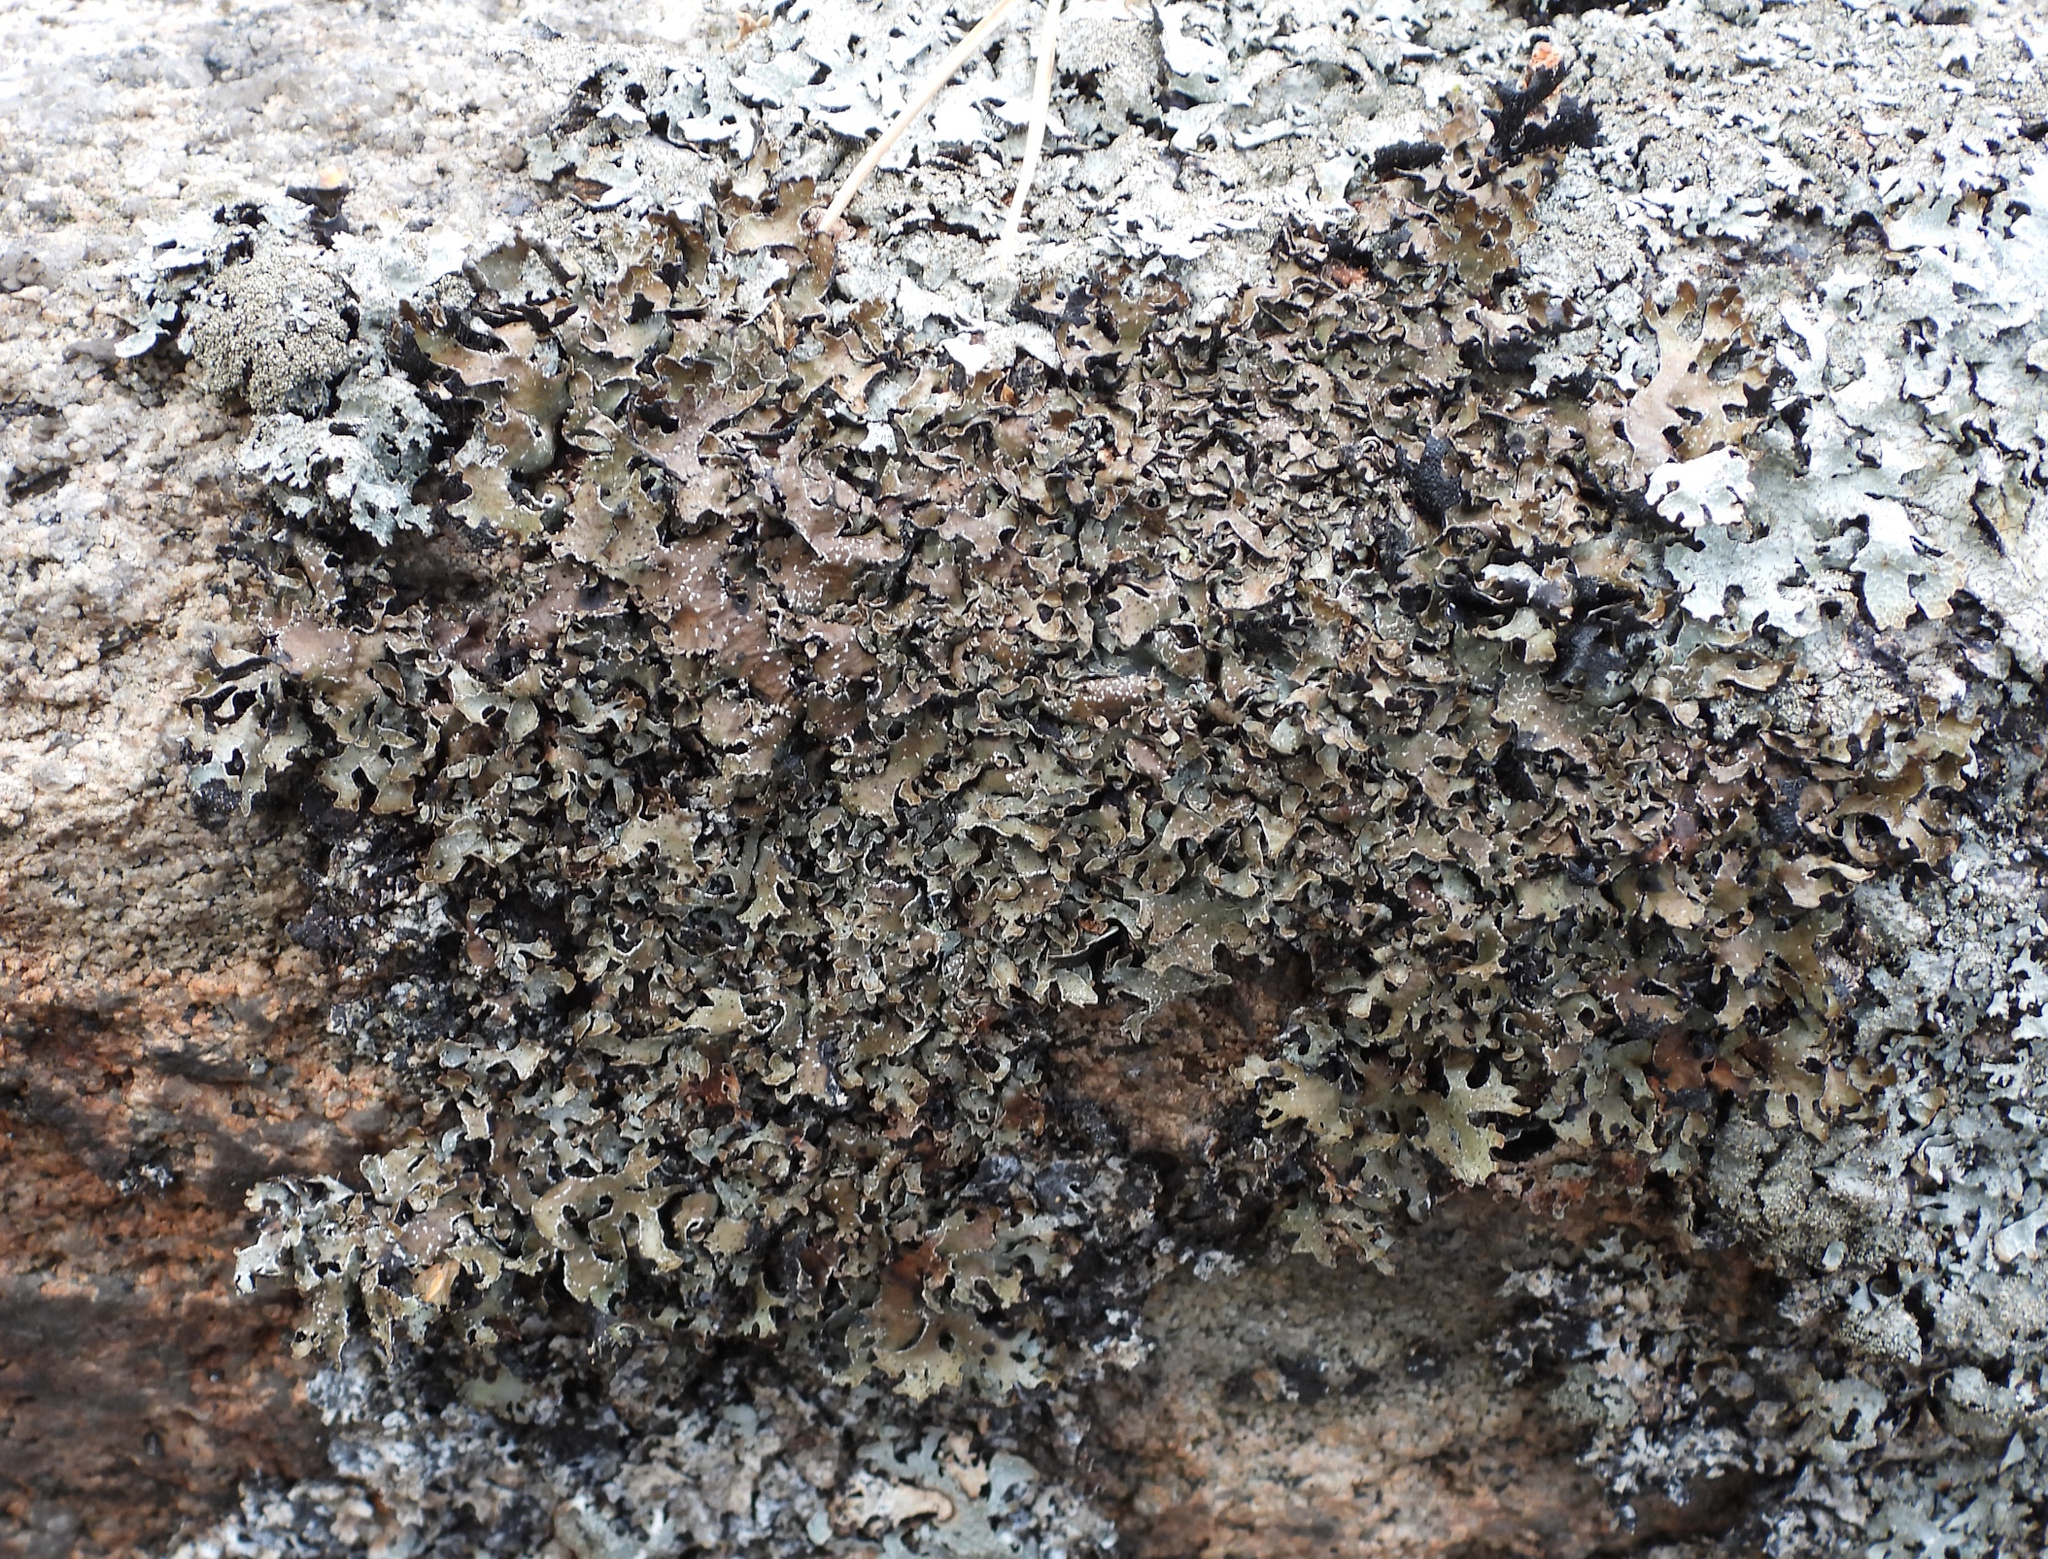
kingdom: Fungi
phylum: Ascomycota
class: Lecanoromycetes
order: Lecanorales
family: Parmeliaceae
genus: Parmelia
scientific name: Parmelia omphalodes
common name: Smoky crottle
